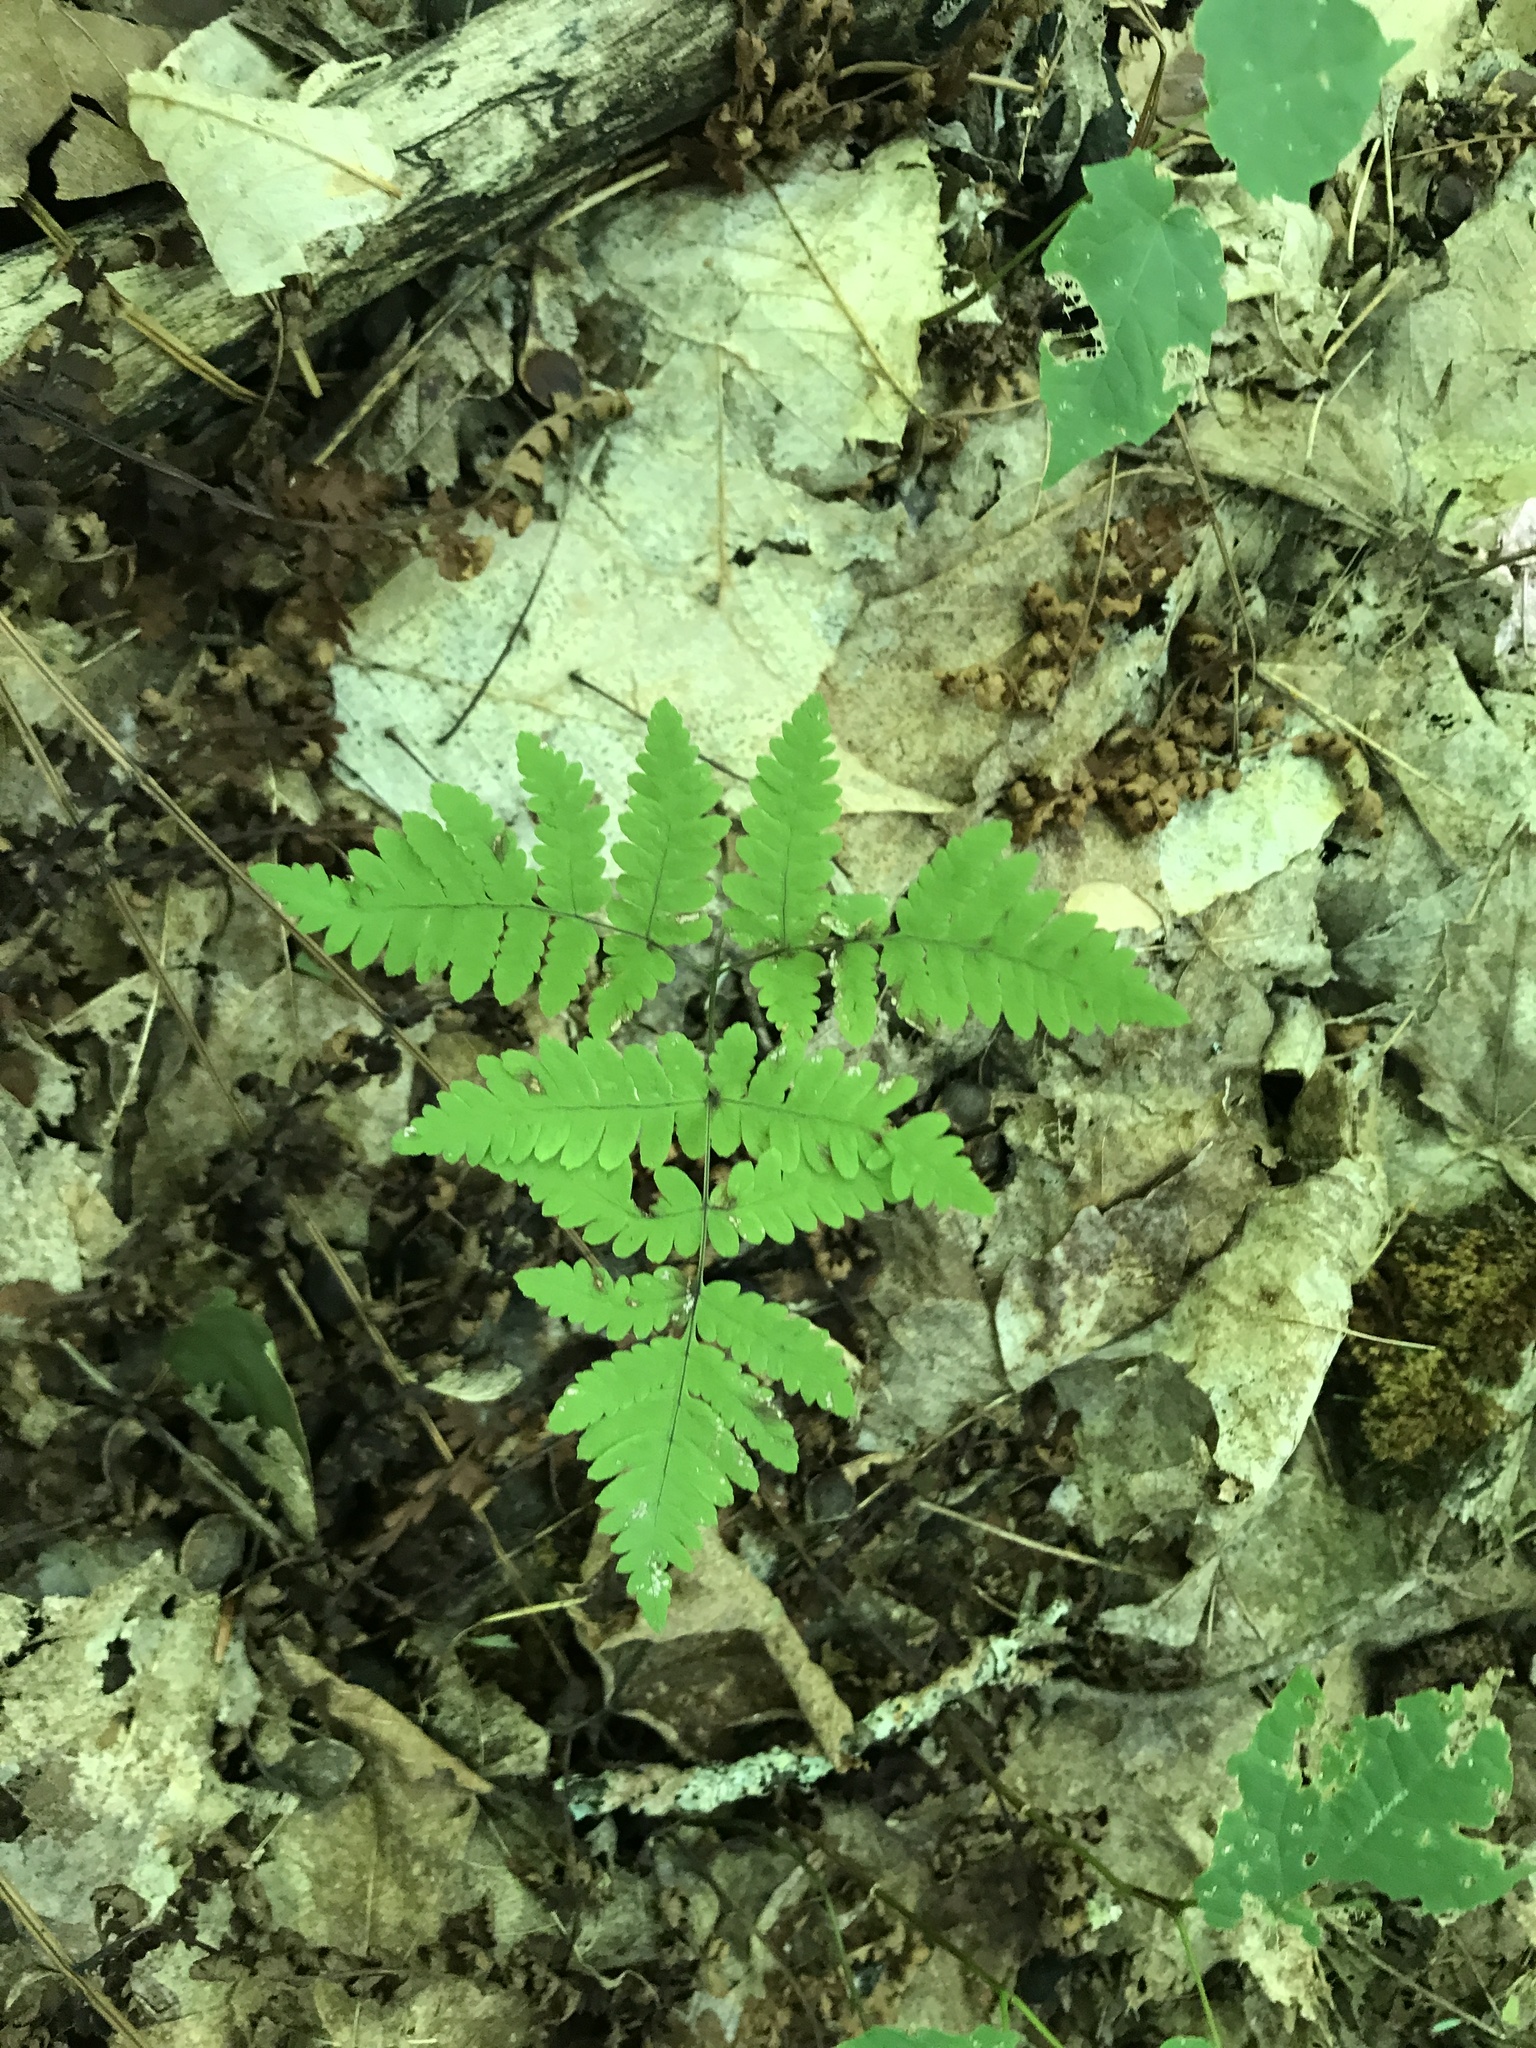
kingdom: Plantae
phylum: Tracheophyta
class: Polypodiopsida
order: Polypodiales
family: Cystopteridaceae
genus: Gymnocarpium
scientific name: Gymnocarpium dryopteris
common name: Oak fern
